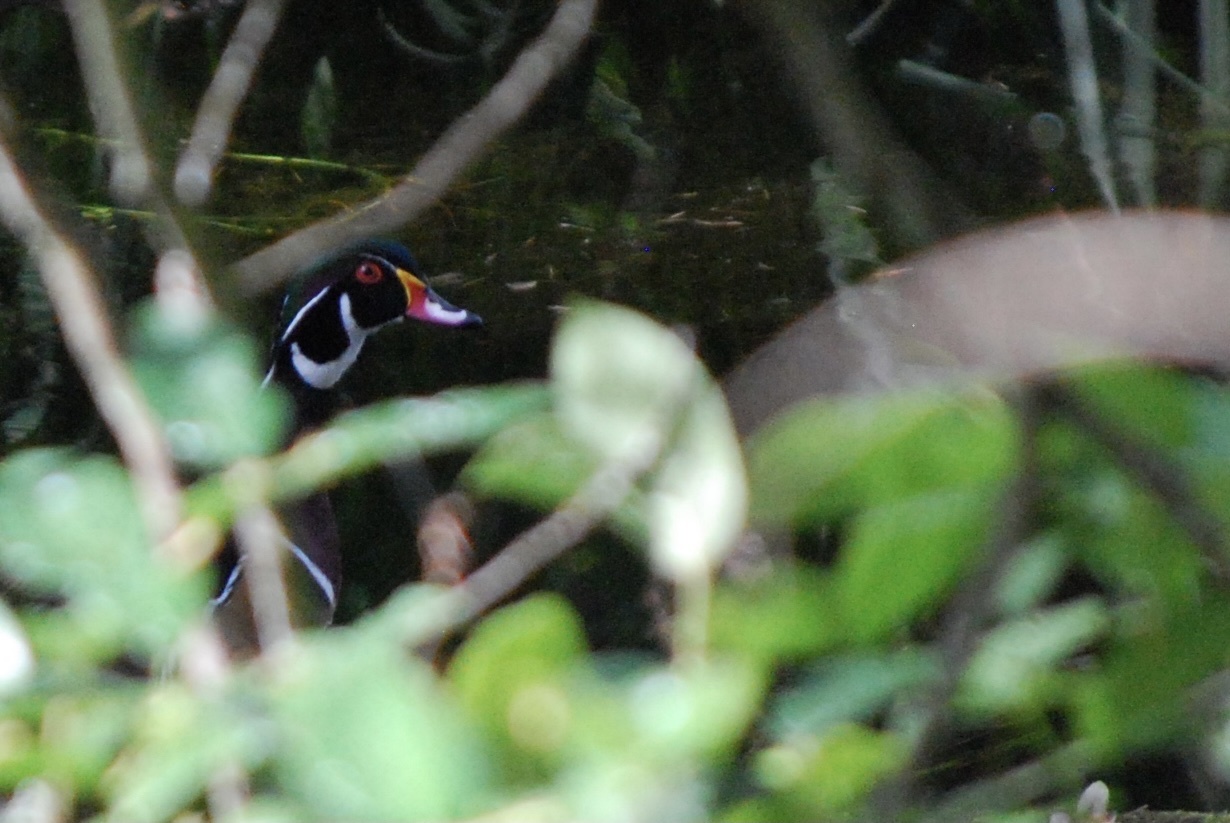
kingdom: Animalia
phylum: Chordata
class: Aves
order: Anseriformes
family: Anatidae
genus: Aix
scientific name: Aix sponsa
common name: Wood duck
